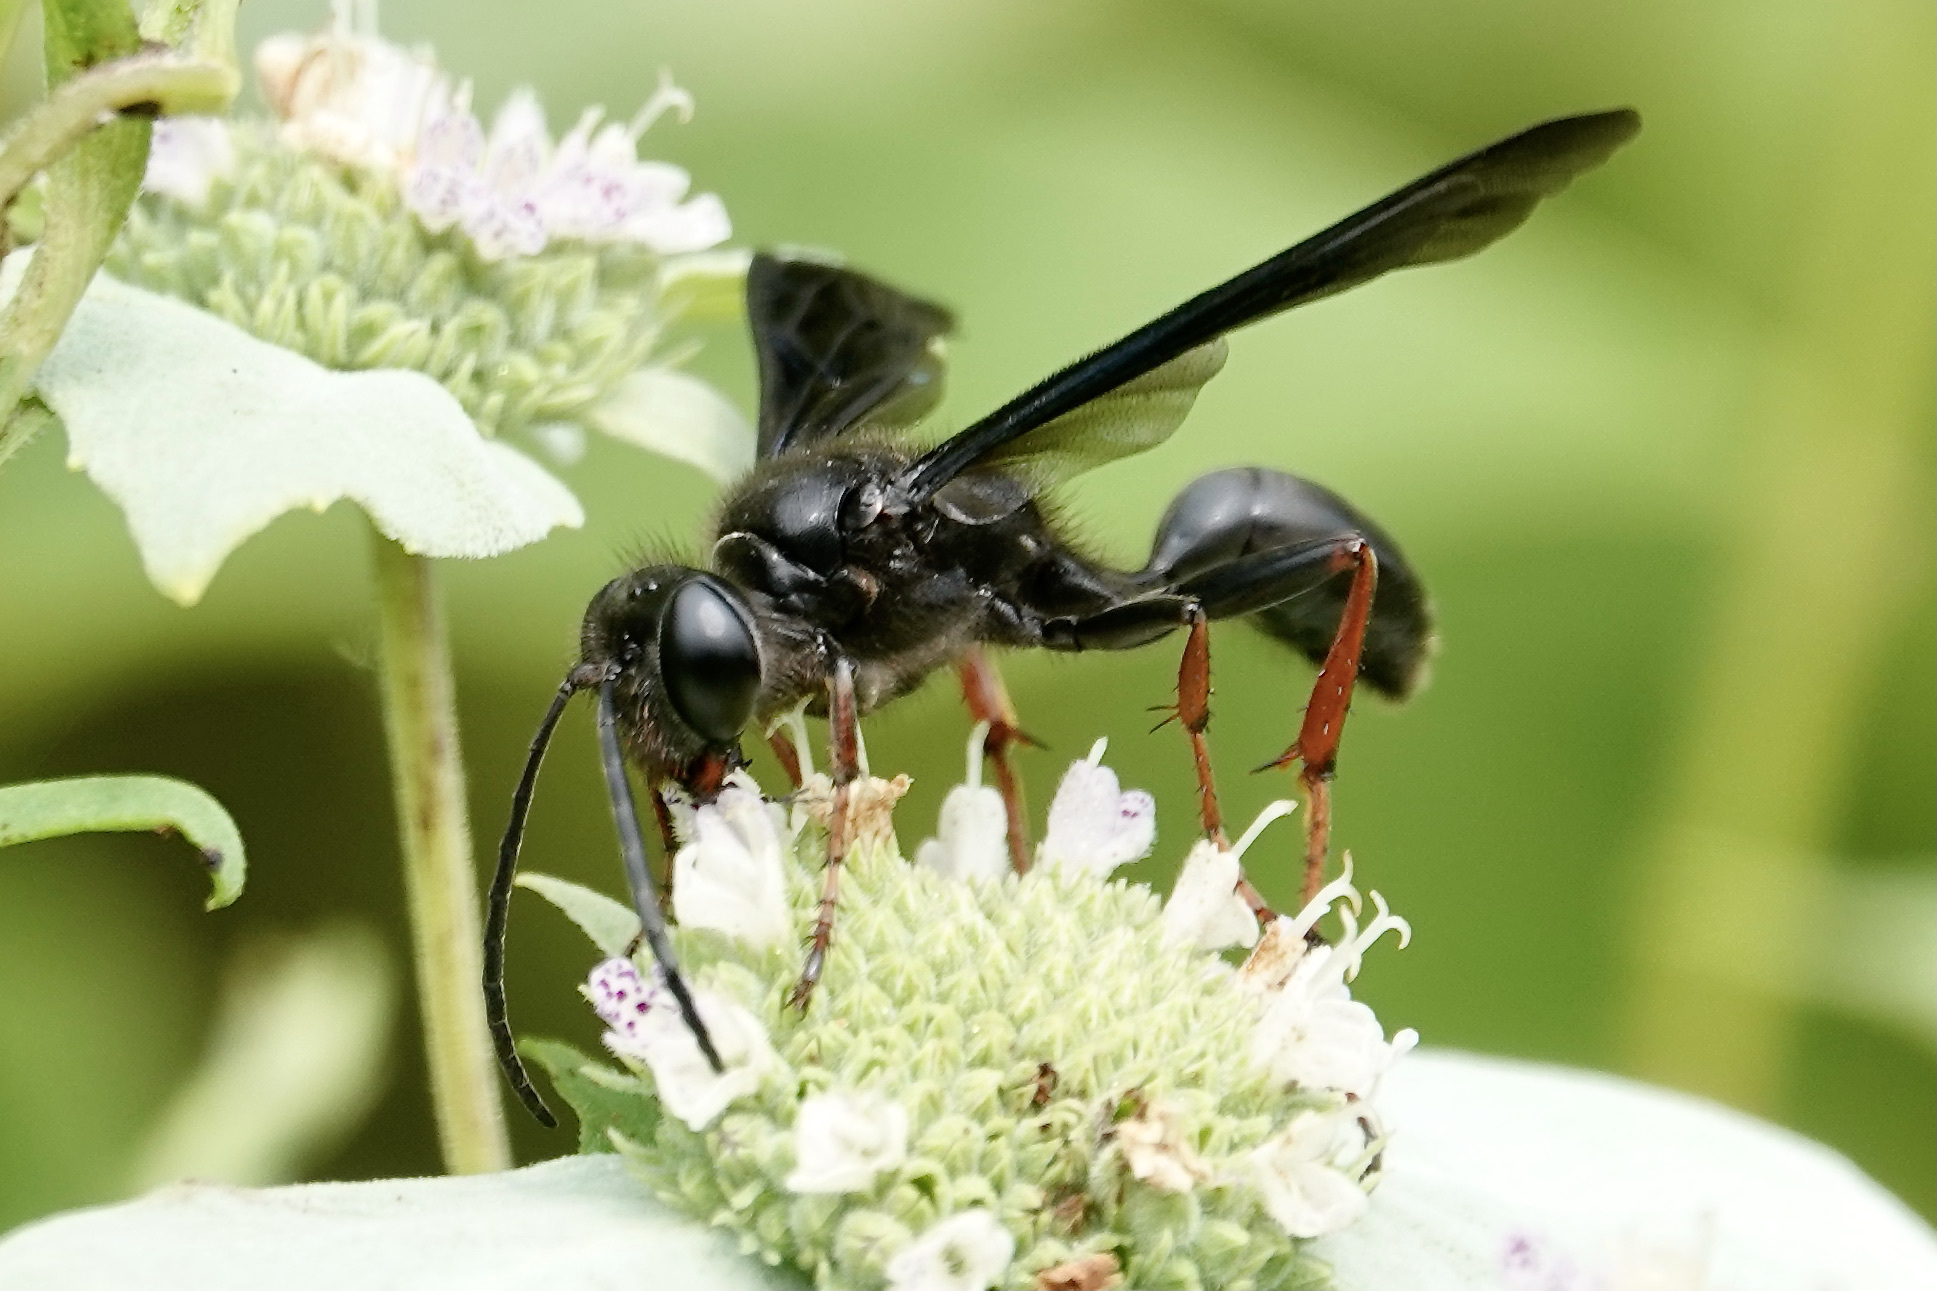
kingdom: Animalia
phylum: Arthropoda
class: Insecta
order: Hymenoptera
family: Sphecidae
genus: Isodontia
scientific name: Isodontia auripes
